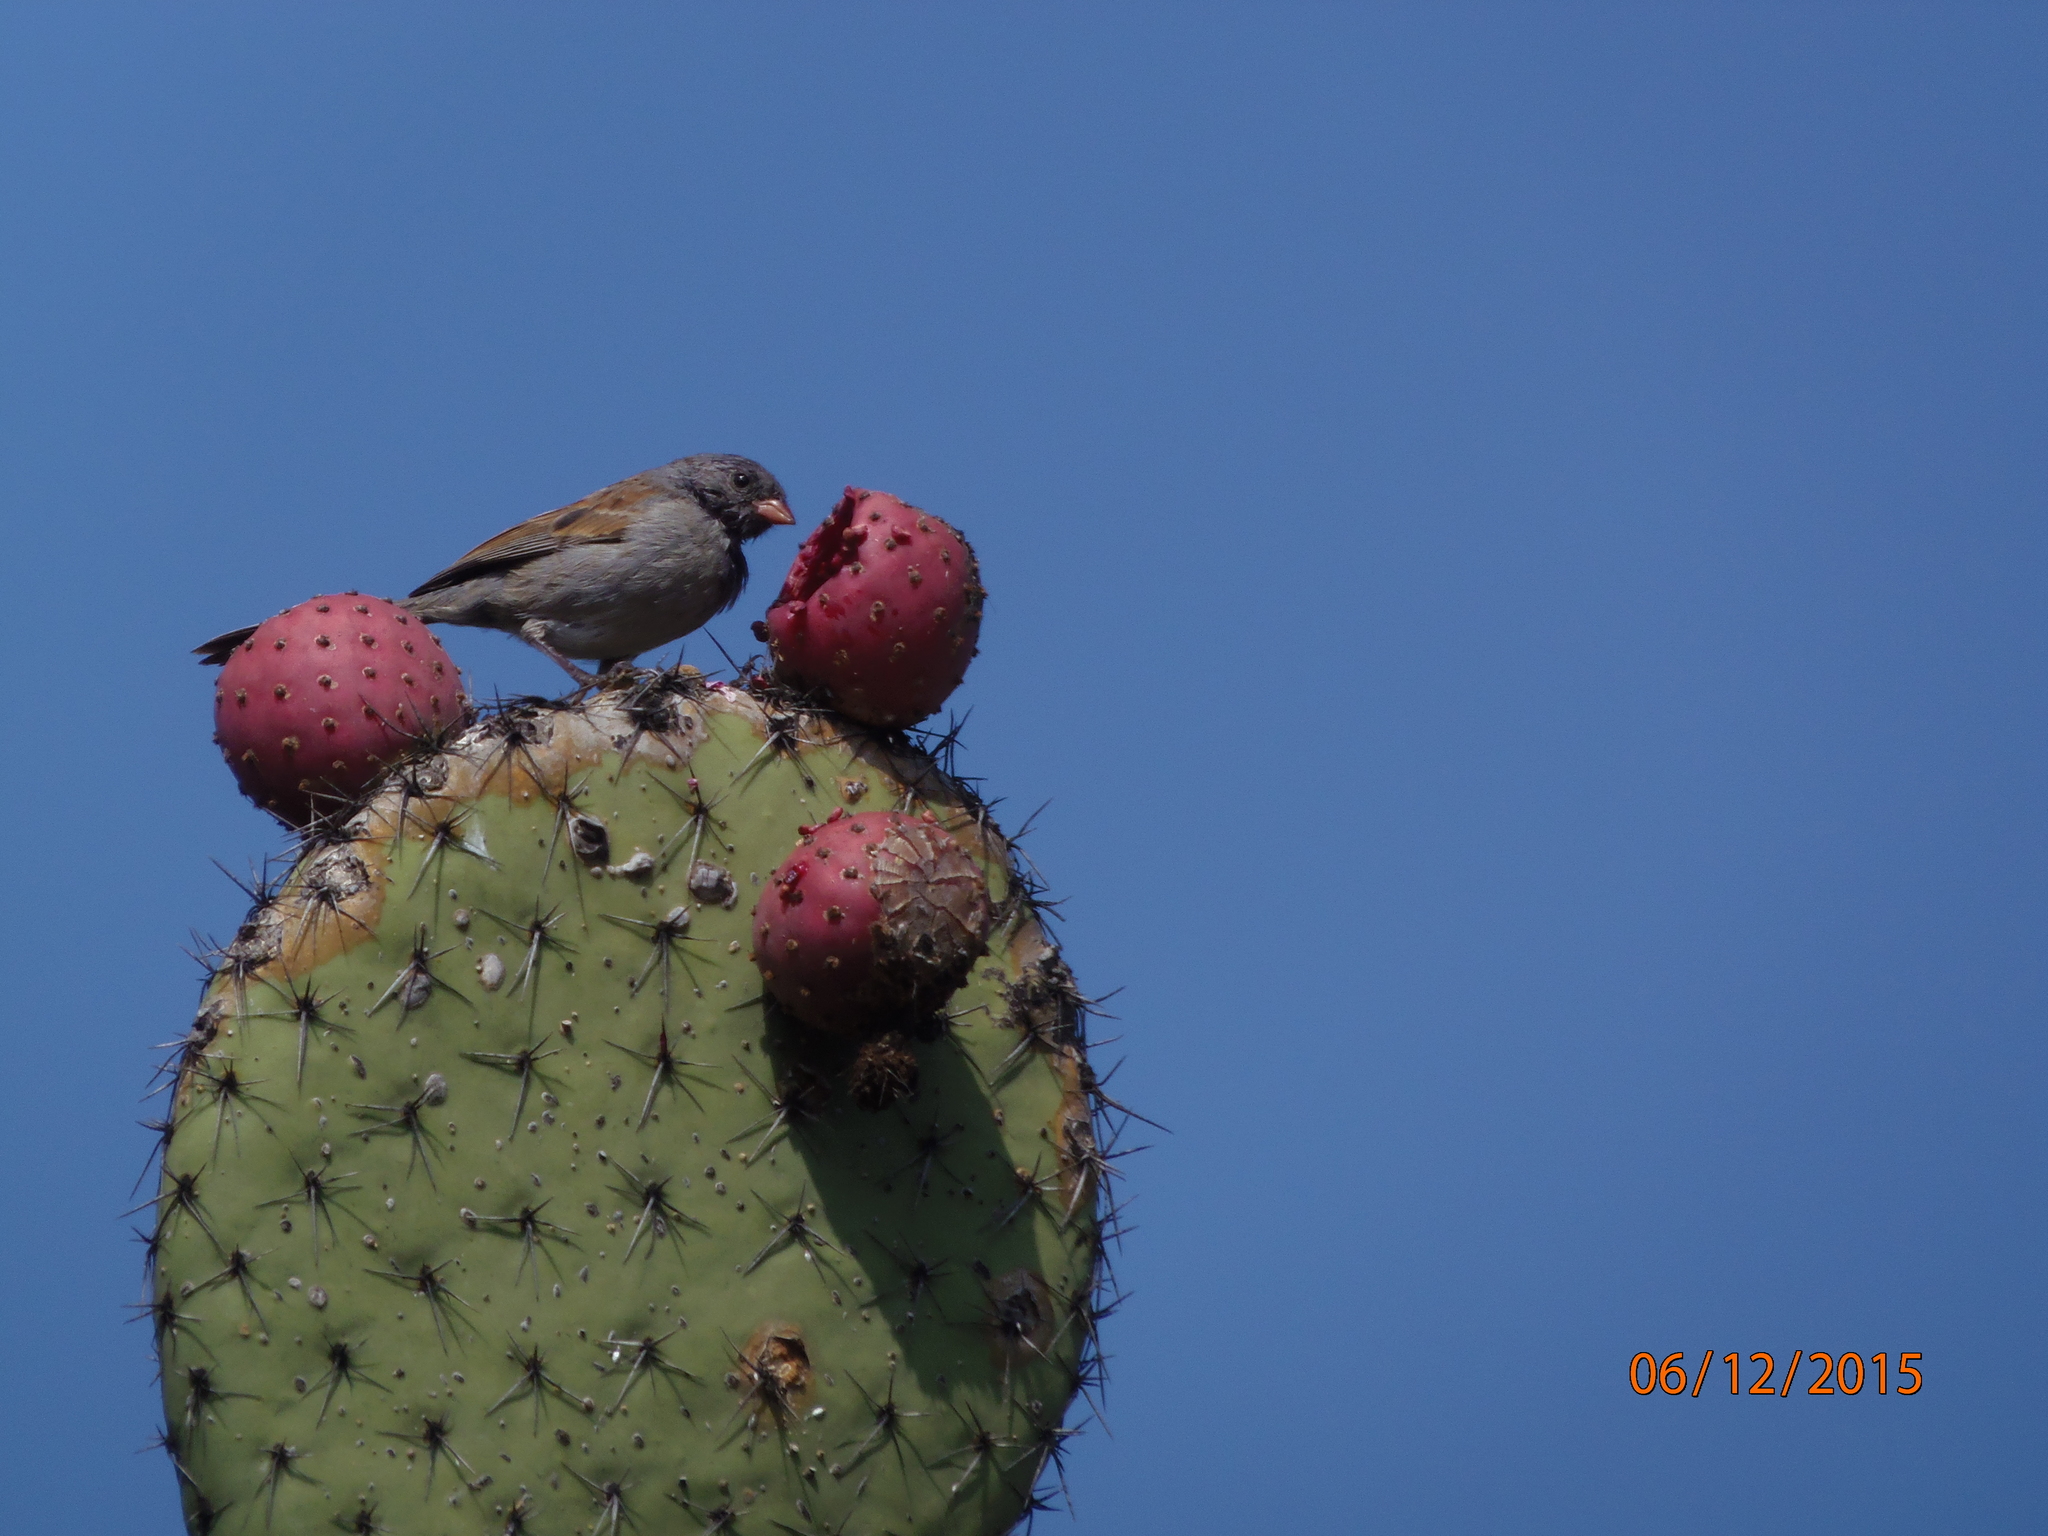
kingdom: Animalia
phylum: Chordata
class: Aves
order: Passeriformes
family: Passerellidae
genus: Spizella
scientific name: Spizella atrogularis
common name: Black-chinned sparrow
